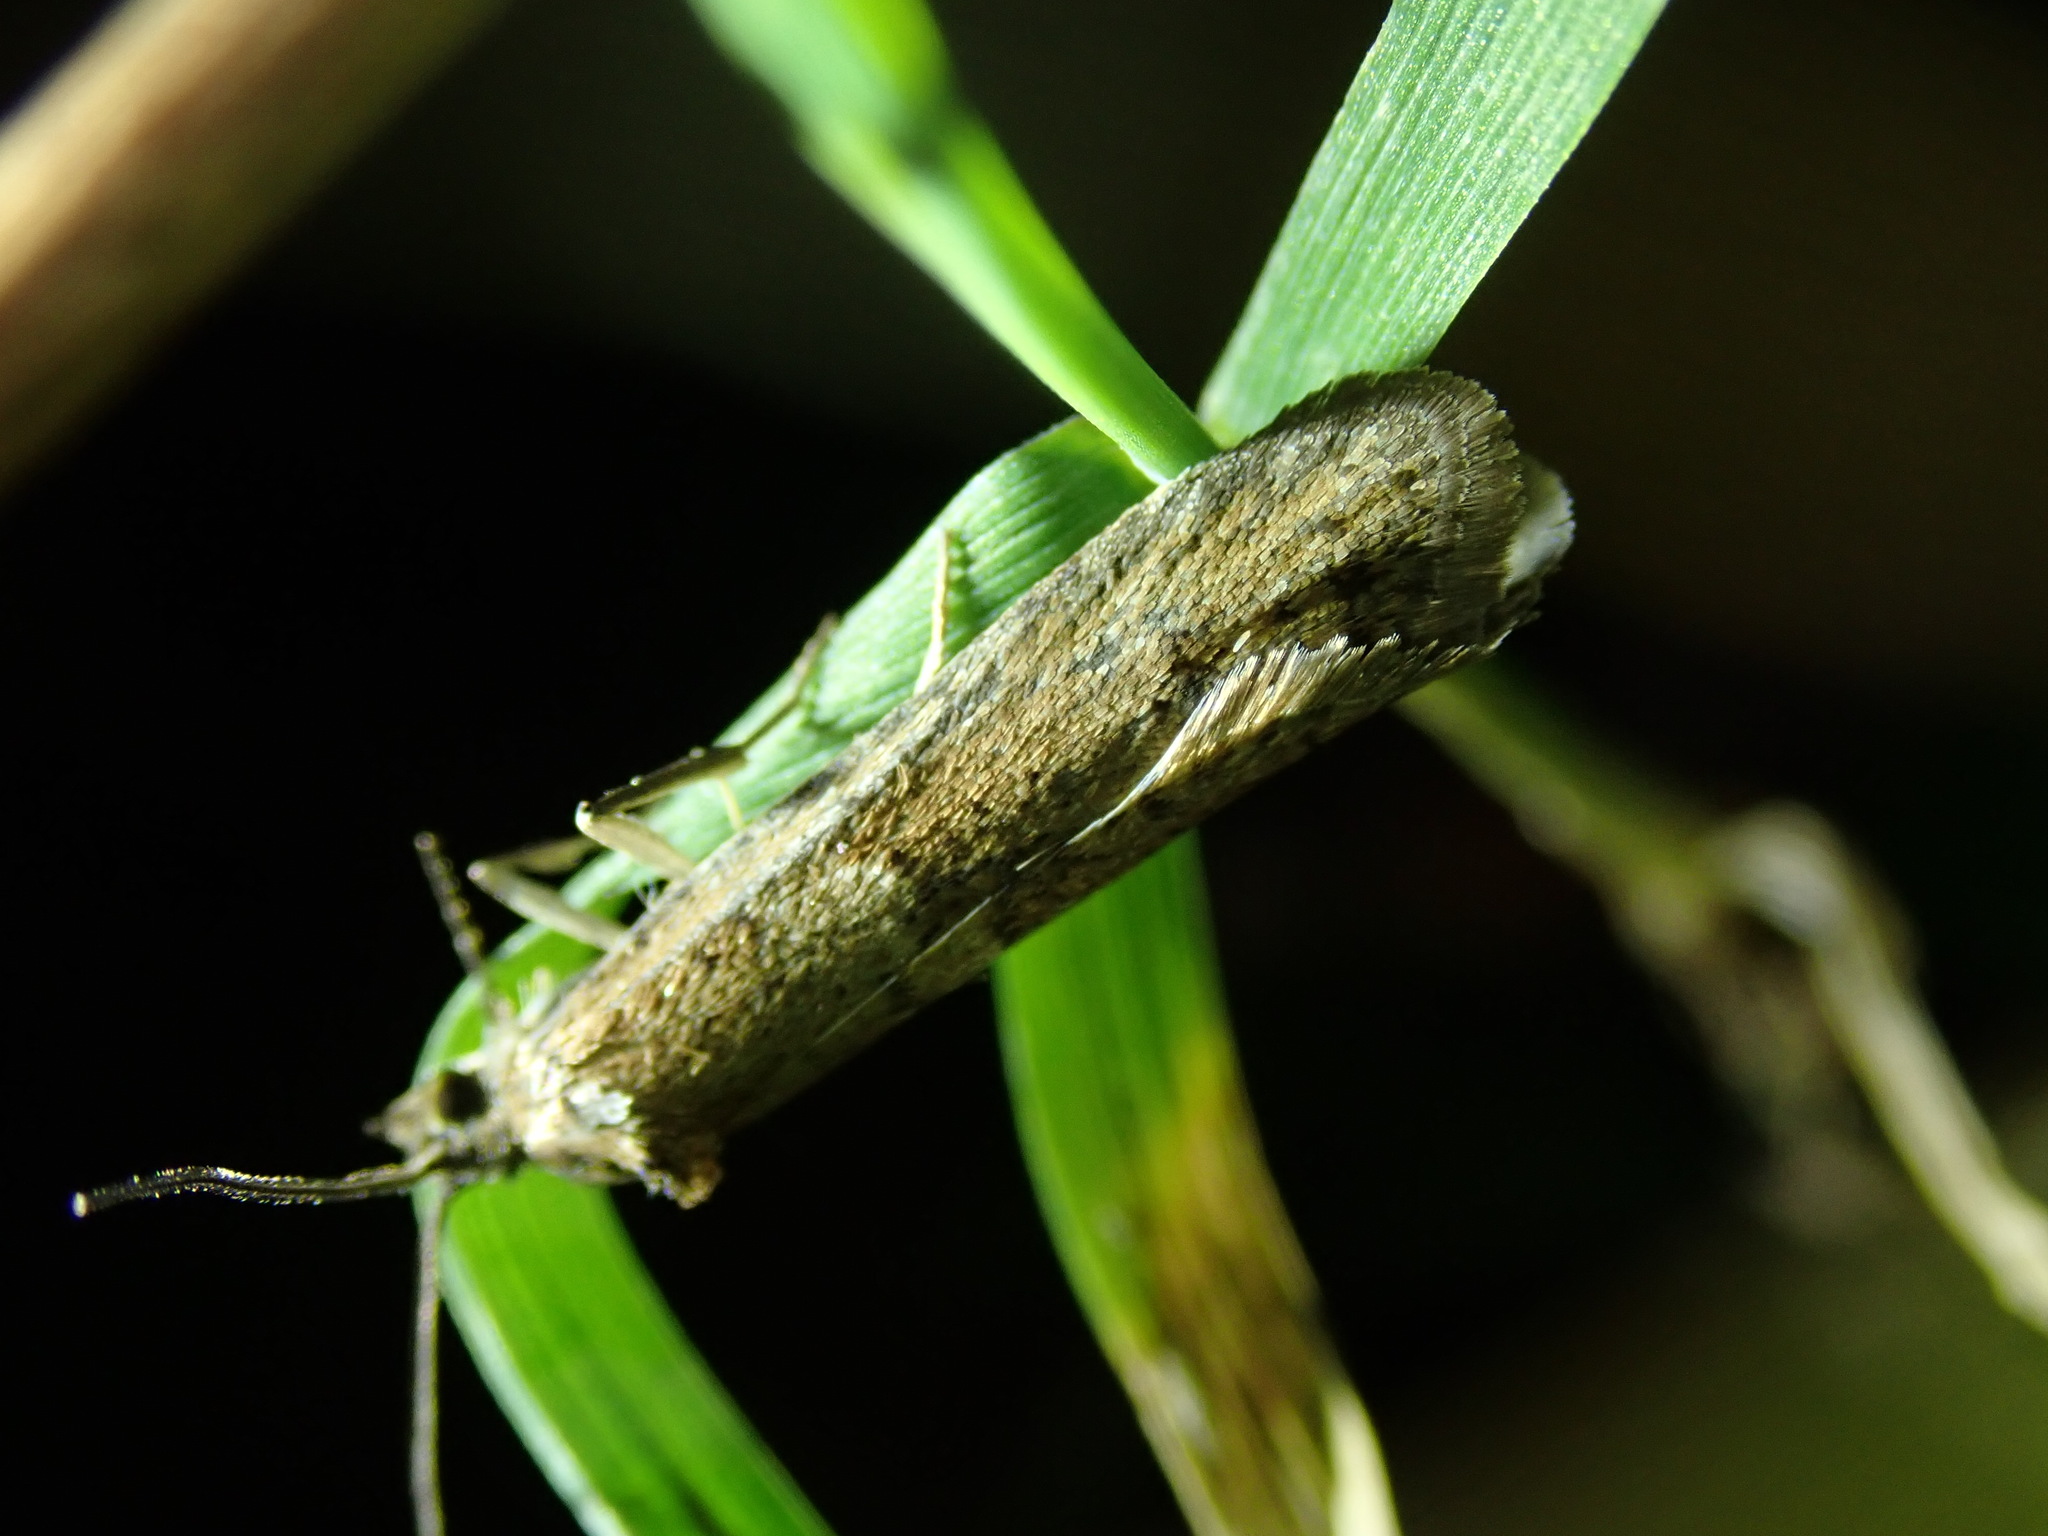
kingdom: Animalia
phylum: Arthropoda
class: Insecta
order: Lepidoptera
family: Tortricidae
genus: Tortricodes
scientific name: Tortricodes alternella
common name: Winter shade
